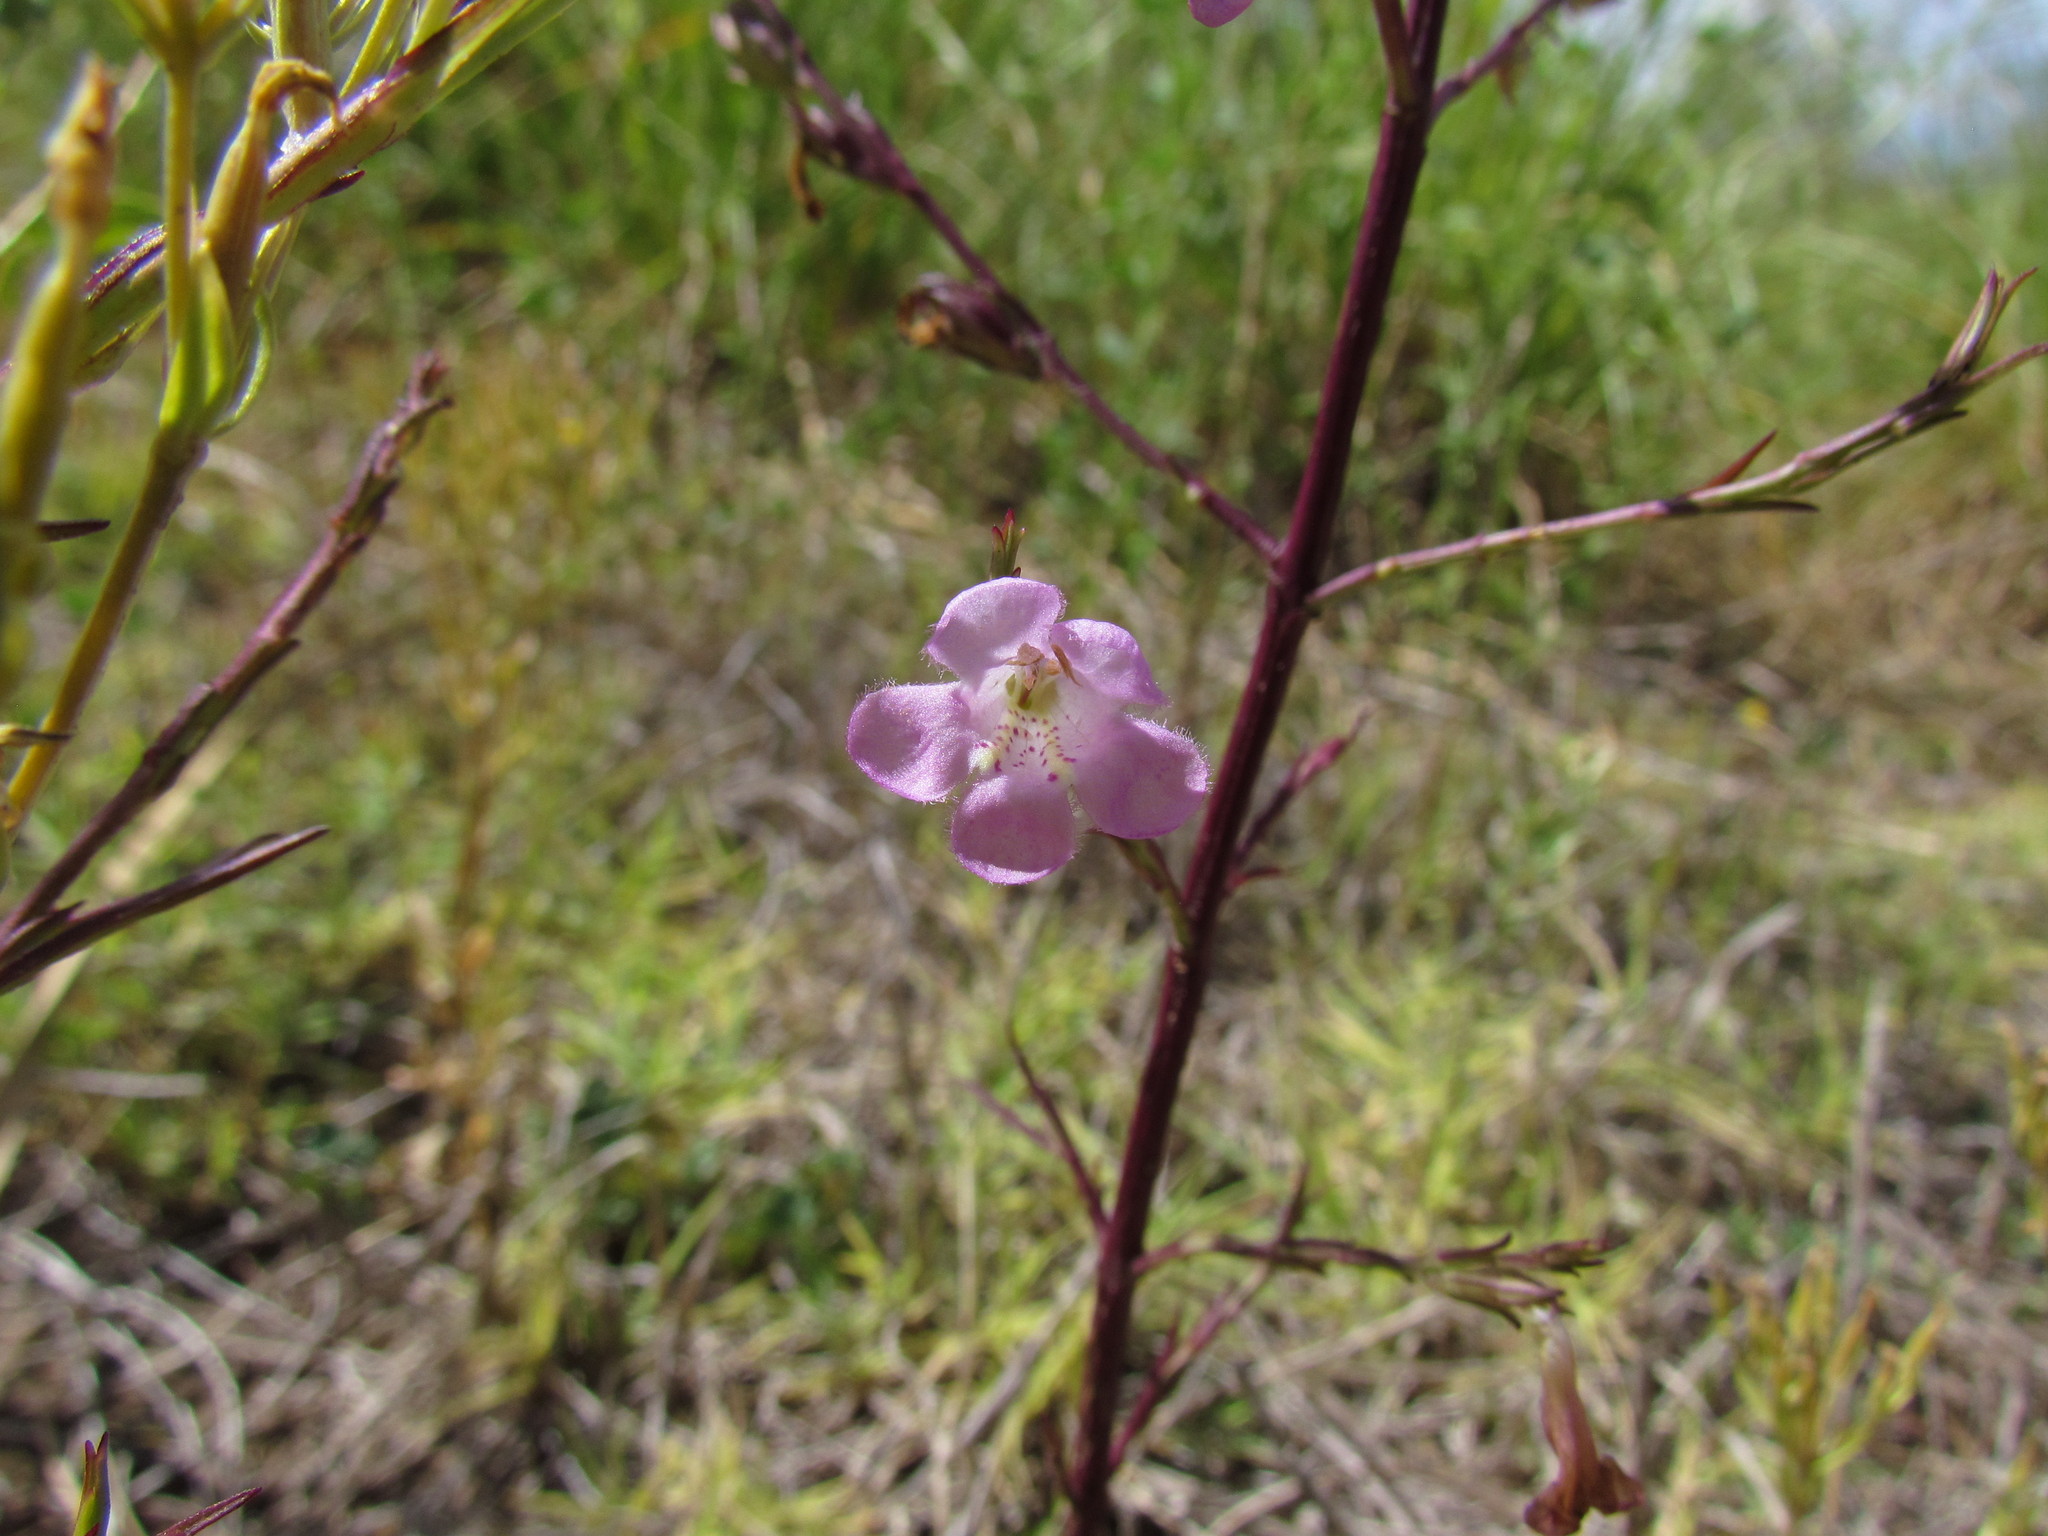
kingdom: Plantae
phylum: Tracheophyta
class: Magnoliopsida
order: Lamiales
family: Orobanchaceae
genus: Agalinis
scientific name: Agalinis communis
